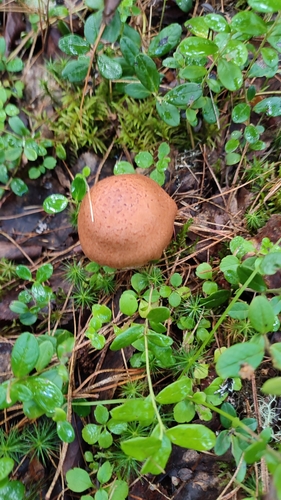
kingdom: Fungi
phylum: Basidiomycota
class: Agaricomycetes
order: Agaricales
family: Cortinariaceae
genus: Cortinarius
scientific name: Cortinarius
